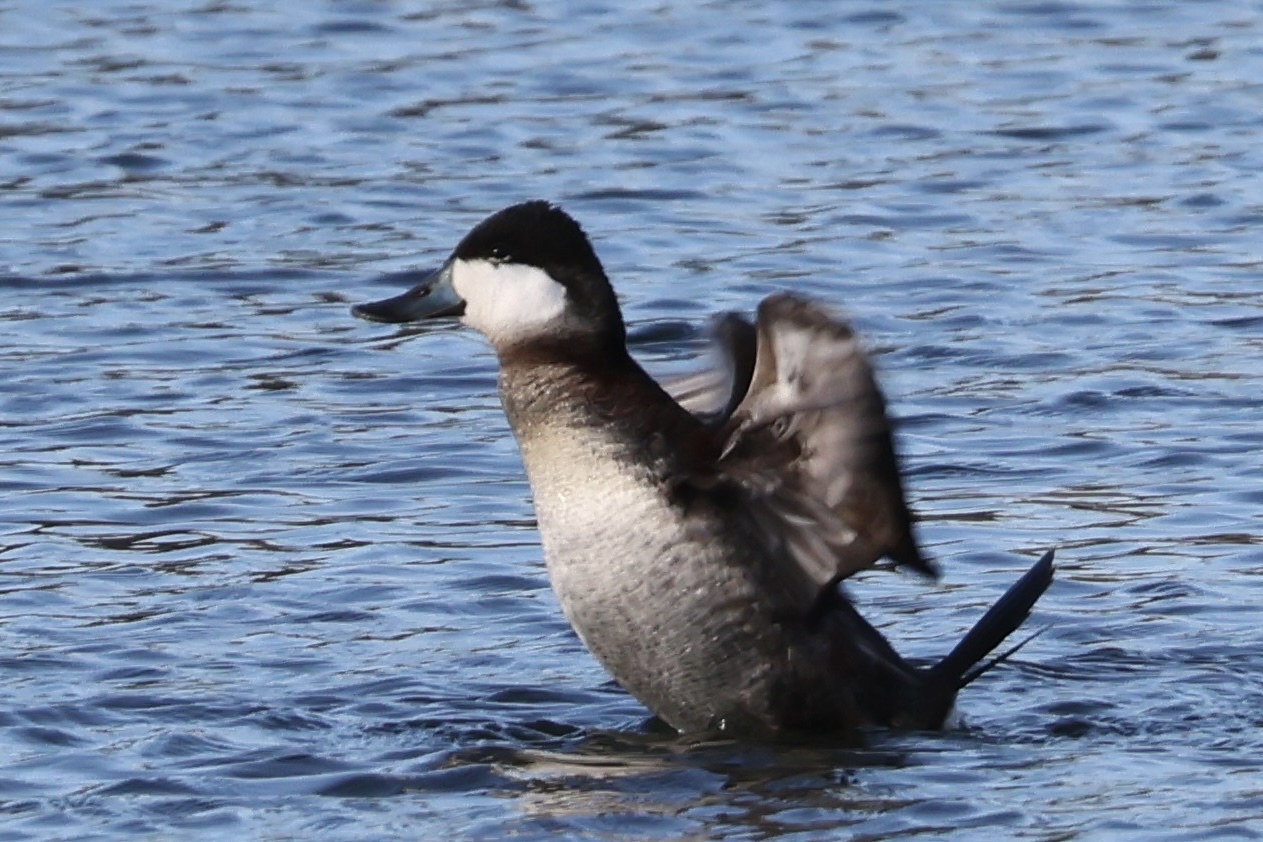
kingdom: Animalia
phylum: Chordata
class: Aves
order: Anseriformes
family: Anatidae
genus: Oxyura
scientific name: Oxyura jamaicensis
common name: Ruddy duck
